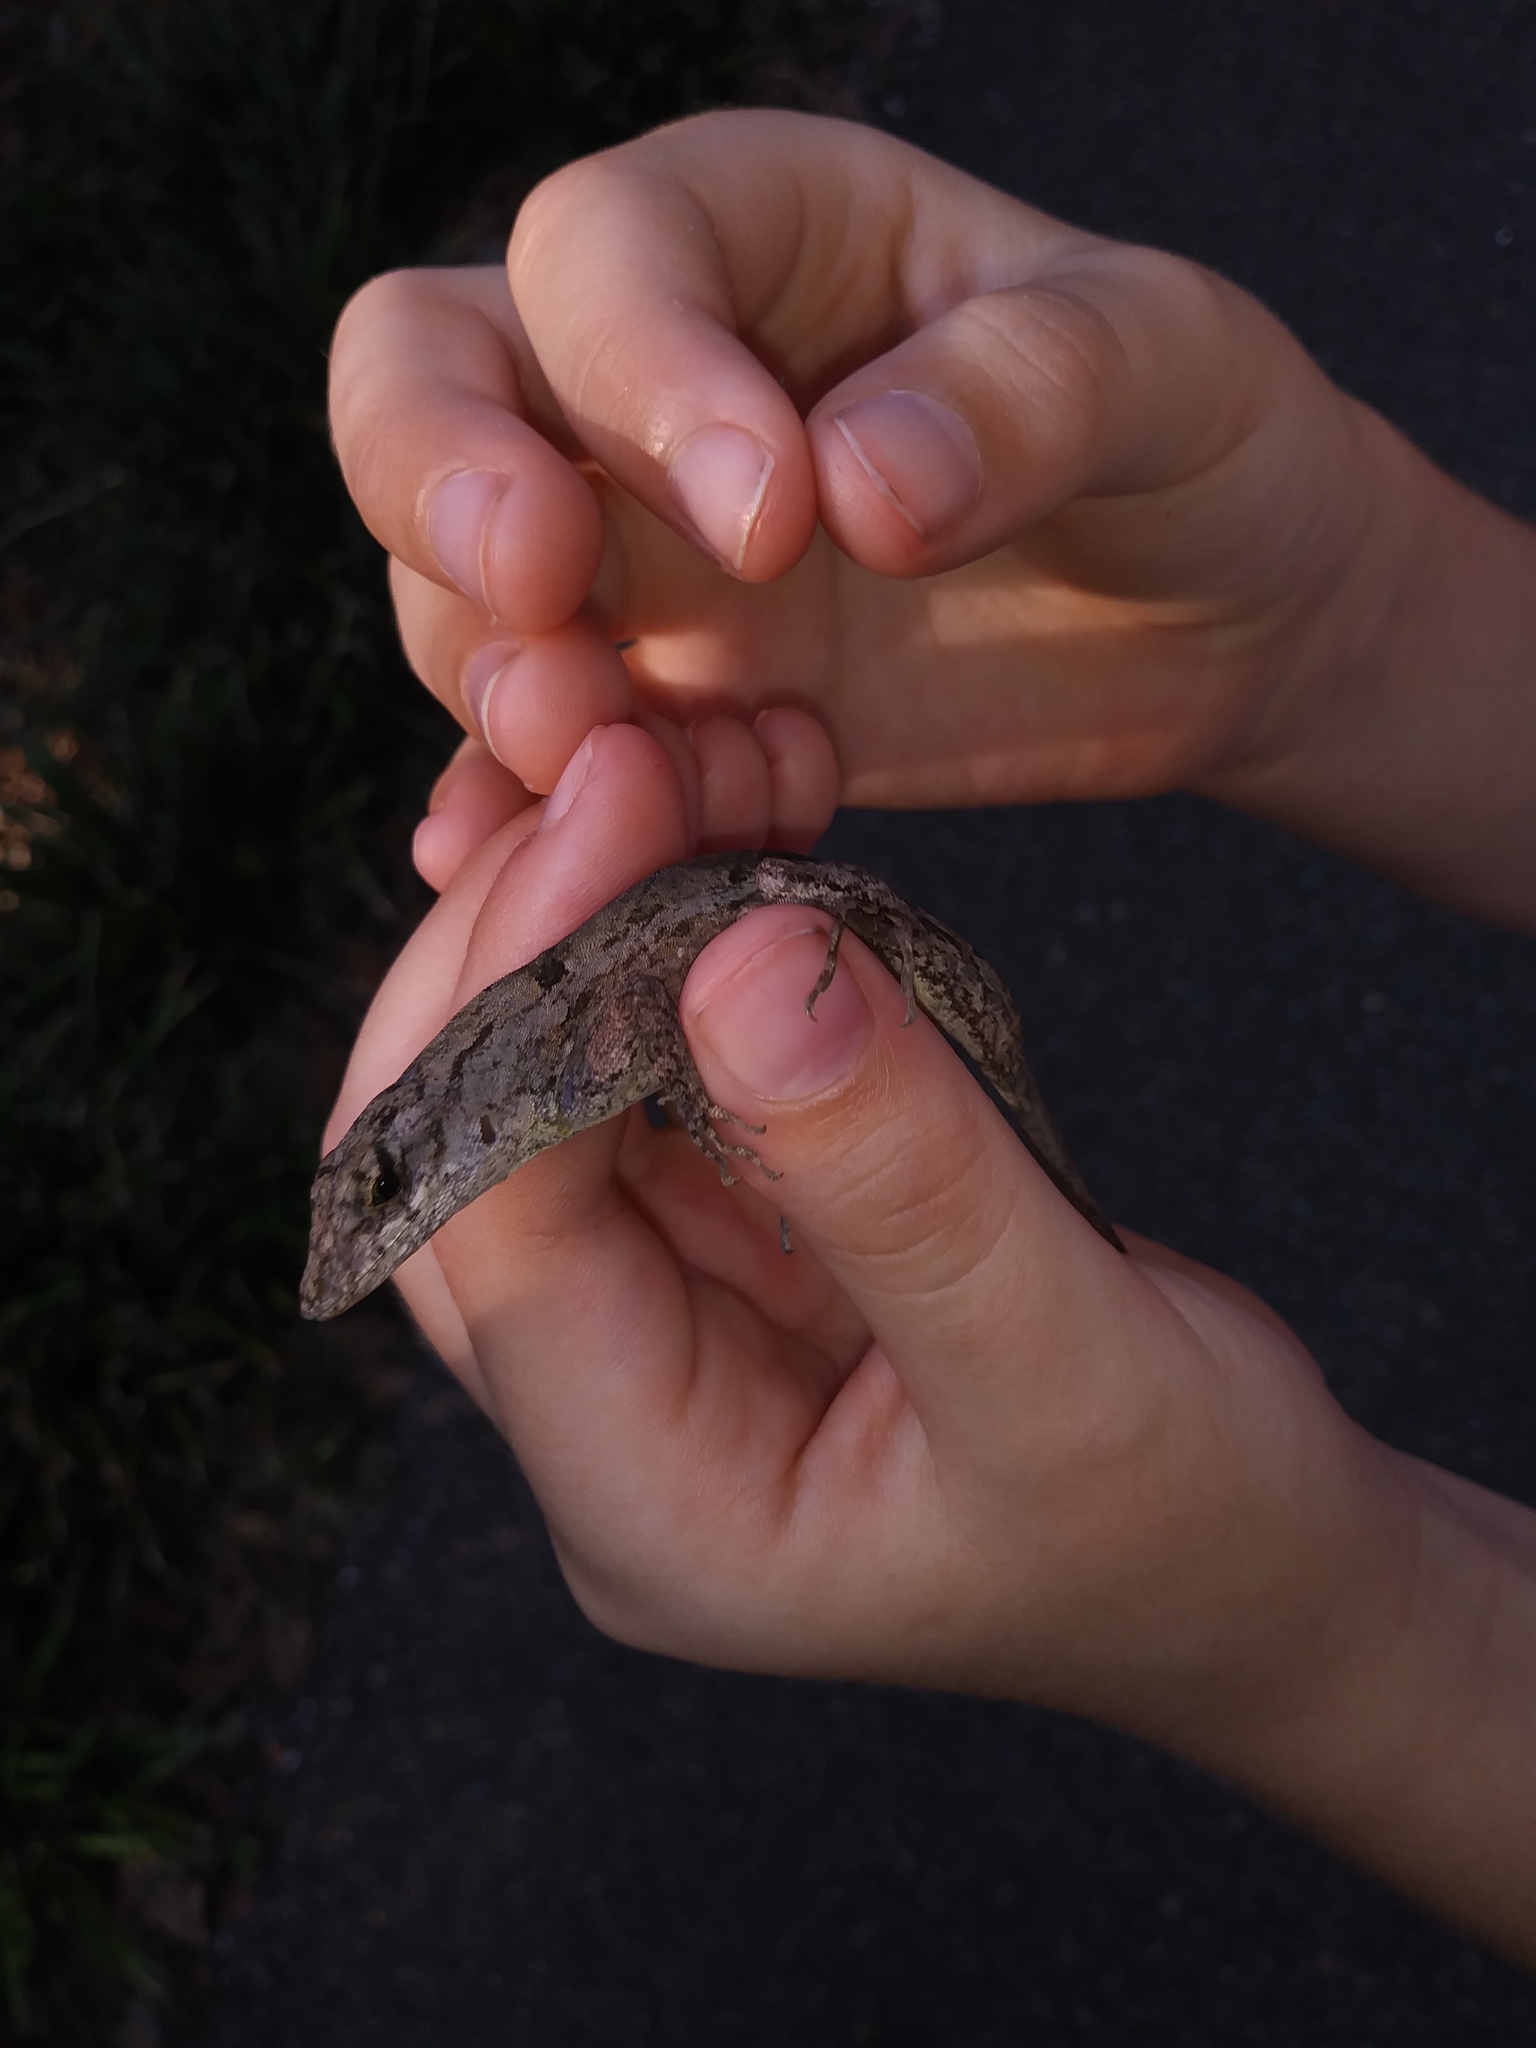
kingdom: Animalia
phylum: Chordata
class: Squamata
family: Dactyloidae
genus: Anolis
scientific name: Anolis sagrei
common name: Brown anole
